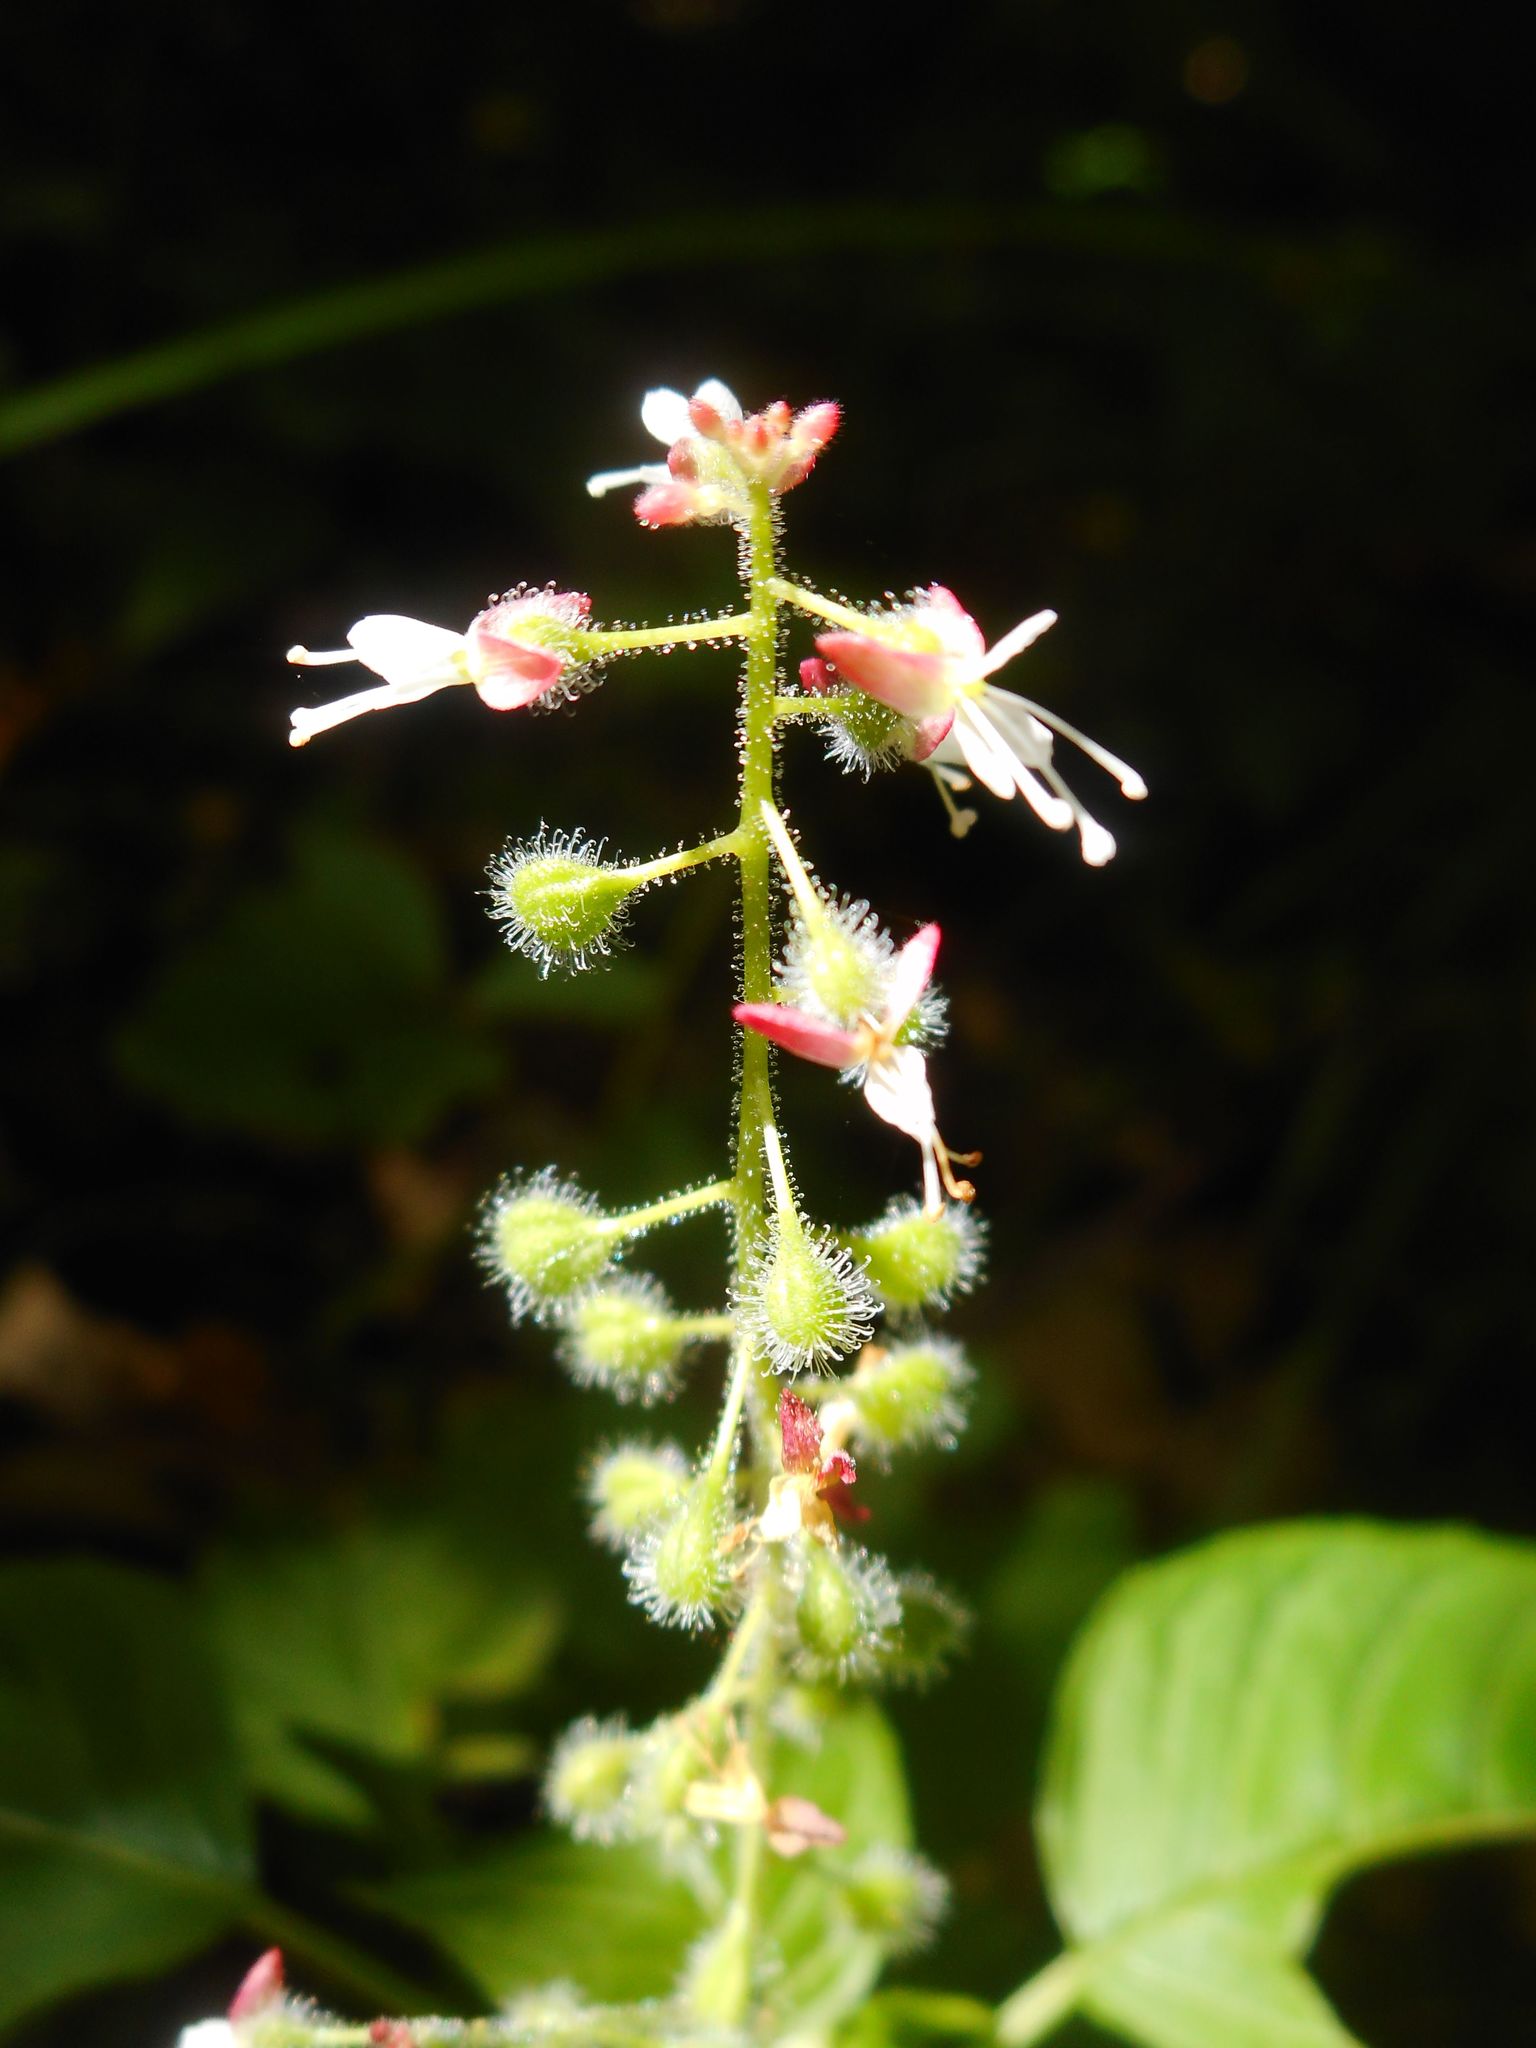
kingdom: Plantae
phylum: Tracheophyta
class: Magnoliopsida
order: Myrtales
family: Onagraceae
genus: Circaea
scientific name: Circaea canadensis
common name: Broad-leaved enchanter's nightshade
